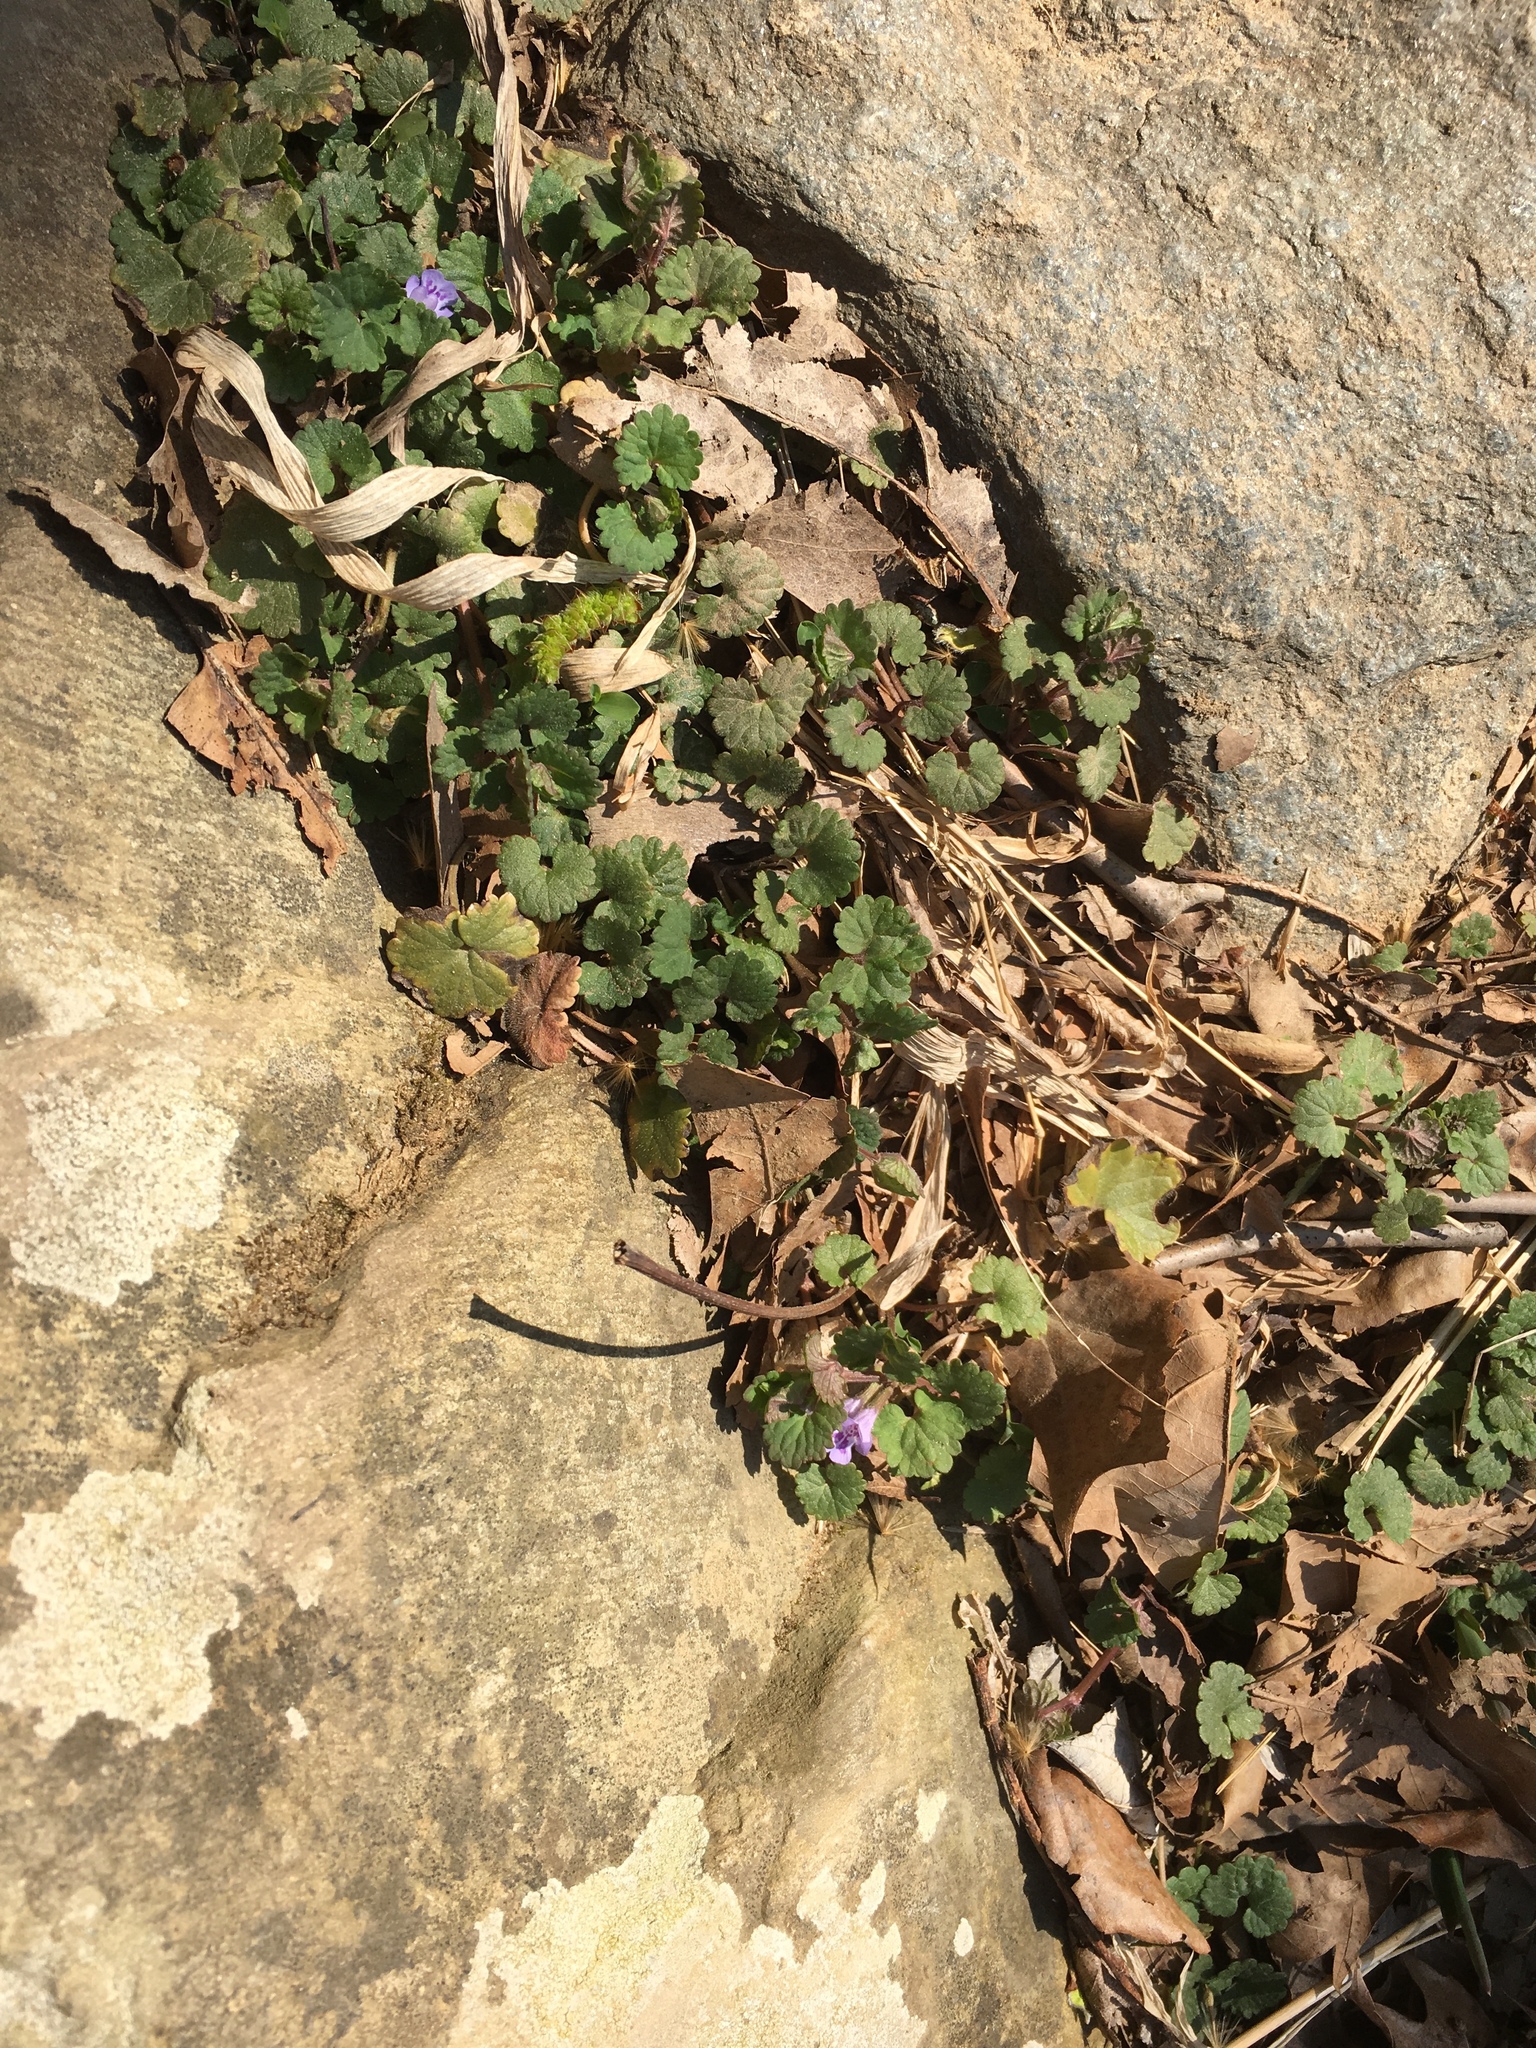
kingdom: Plantae
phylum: Tracheophyta
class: Magnoliopsida
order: Lamiales
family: Lamiaceae
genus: Glechoma
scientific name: Glechoma hederacea
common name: Ground ivy
